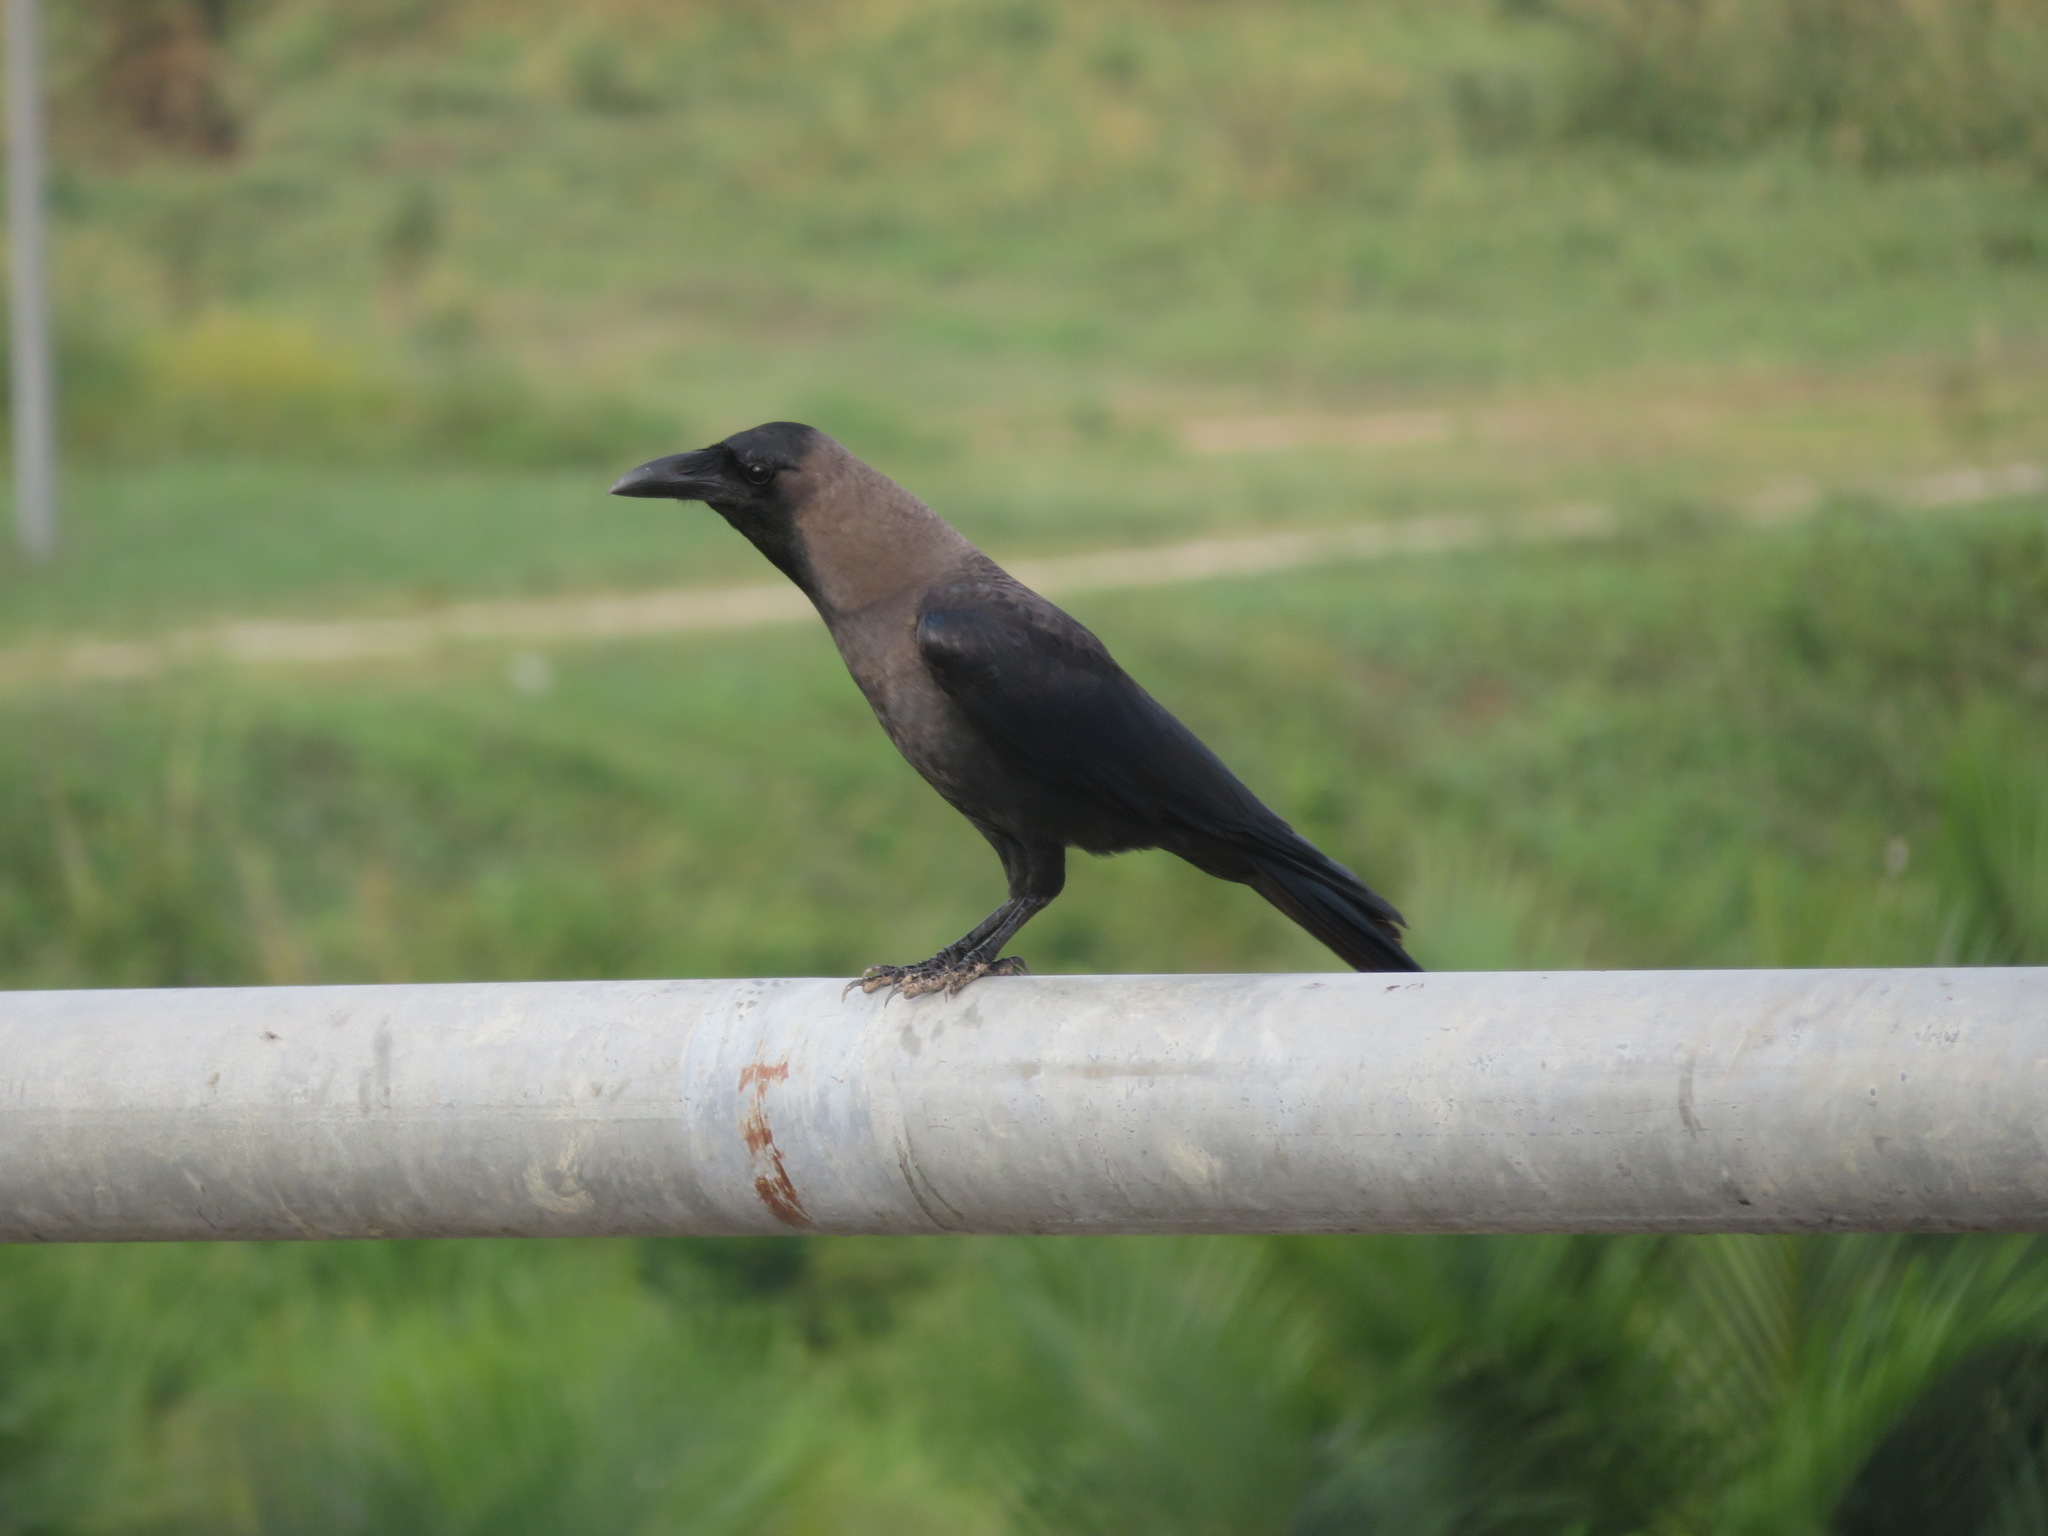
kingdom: Animalia
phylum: Chordata
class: Aves
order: Passeriformes
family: Corvidae
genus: Corvus
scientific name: Corvus splendens
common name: House crow
